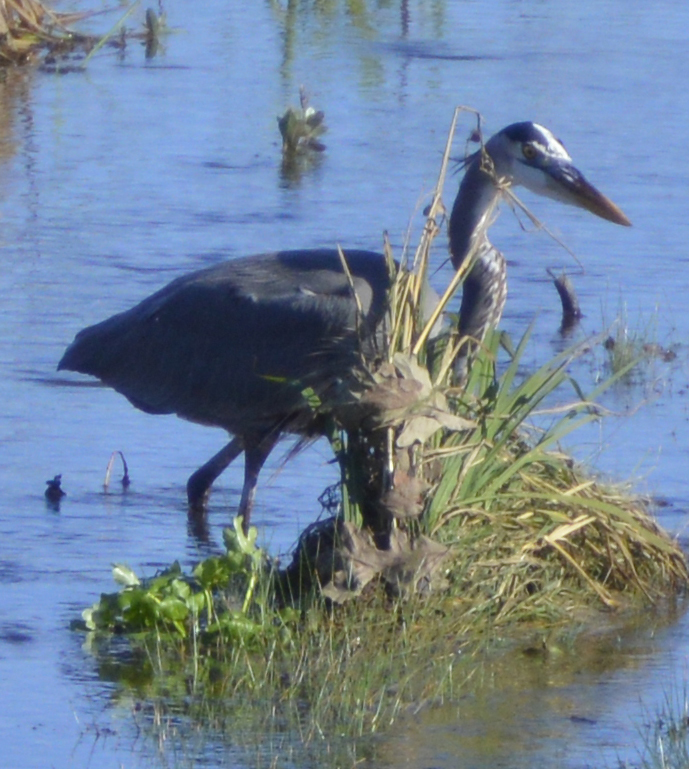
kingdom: Animalia
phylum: Chordata
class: Aves
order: Pelecaniformes
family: Ardeidae
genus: Ardea
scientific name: Ardea herodias
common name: Great blue heron
